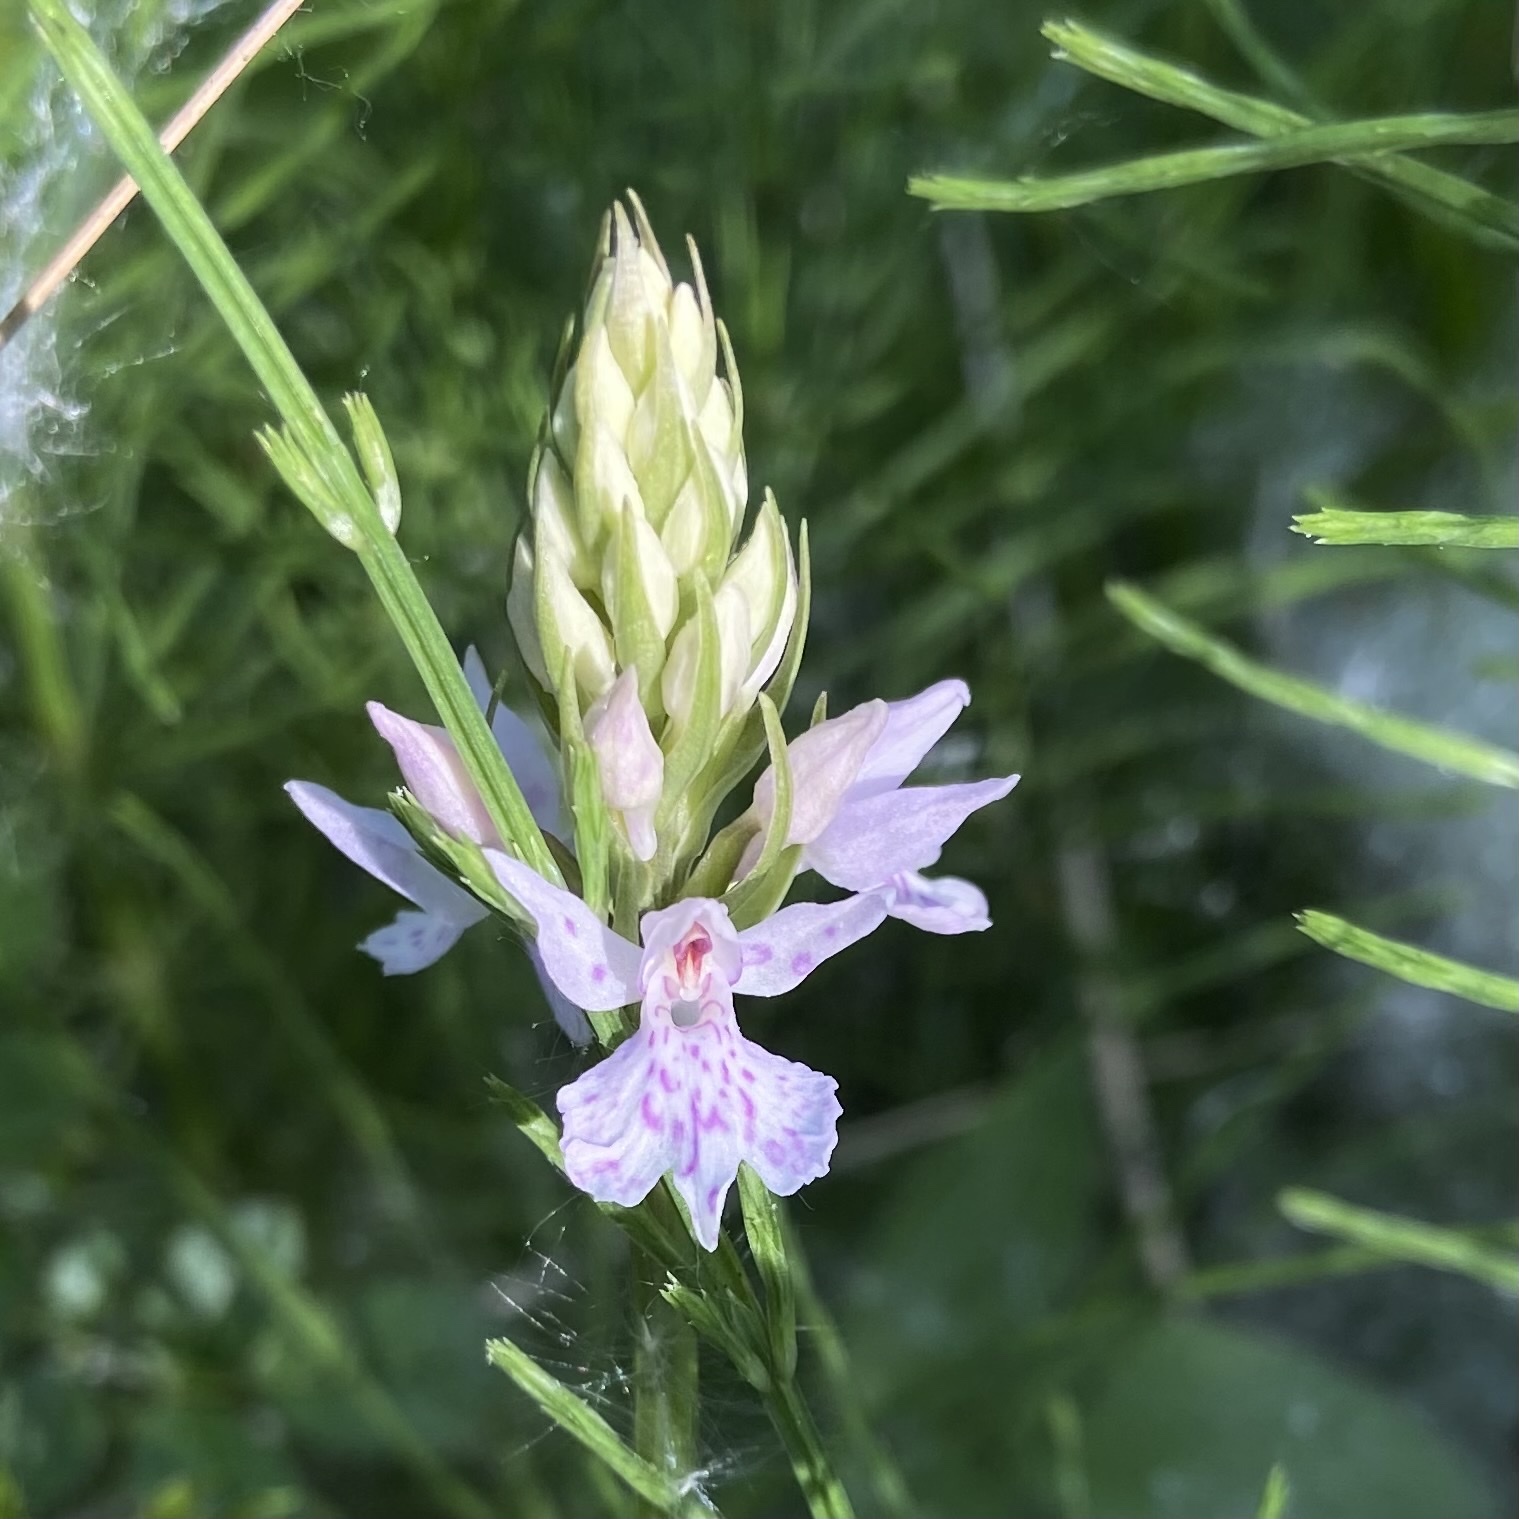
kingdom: Plantae
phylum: Tracheophyta
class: Liliopsida
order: Asparagales
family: Orchidaceae
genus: Dactylorhiza
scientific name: Dactylorhiza maculata
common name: Heath spotted-orchid
